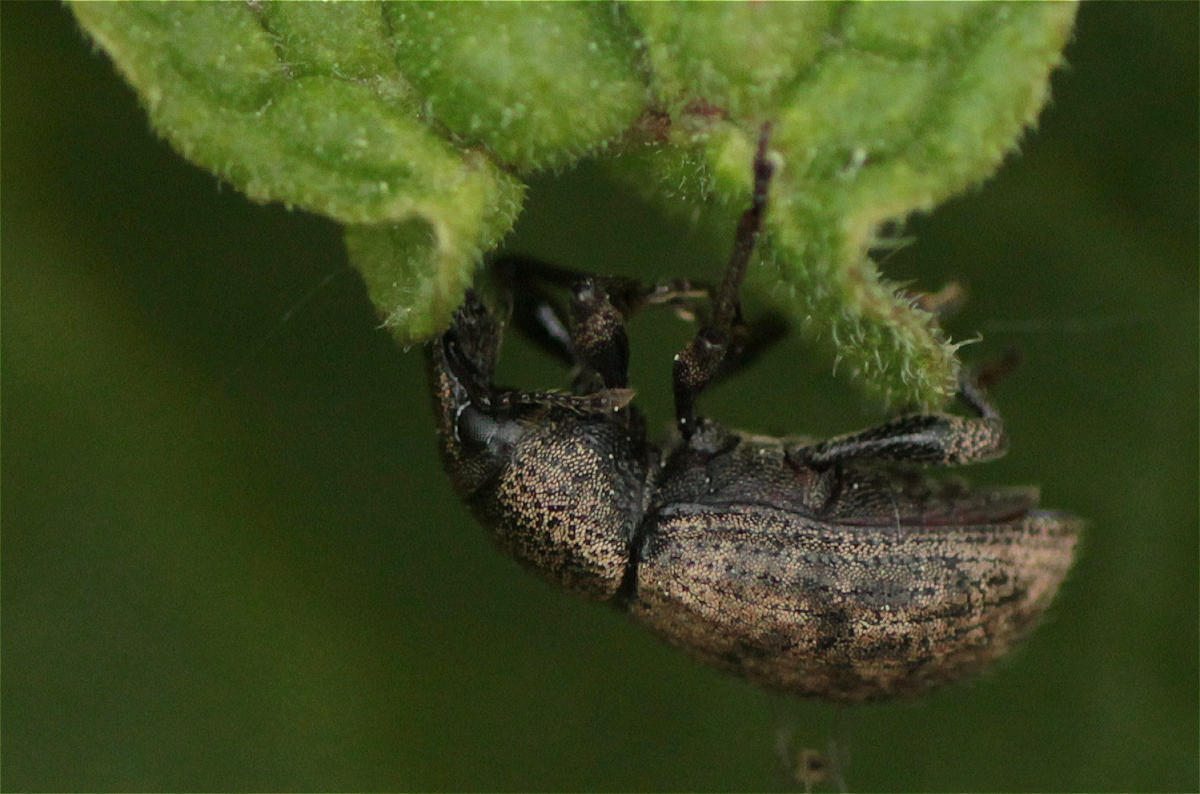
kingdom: Animalia
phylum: Arthropoda
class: Insecta
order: Coleoptera
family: Curculionidae
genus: Barynotus
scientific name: Barynotus obscurus
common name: Weevil
